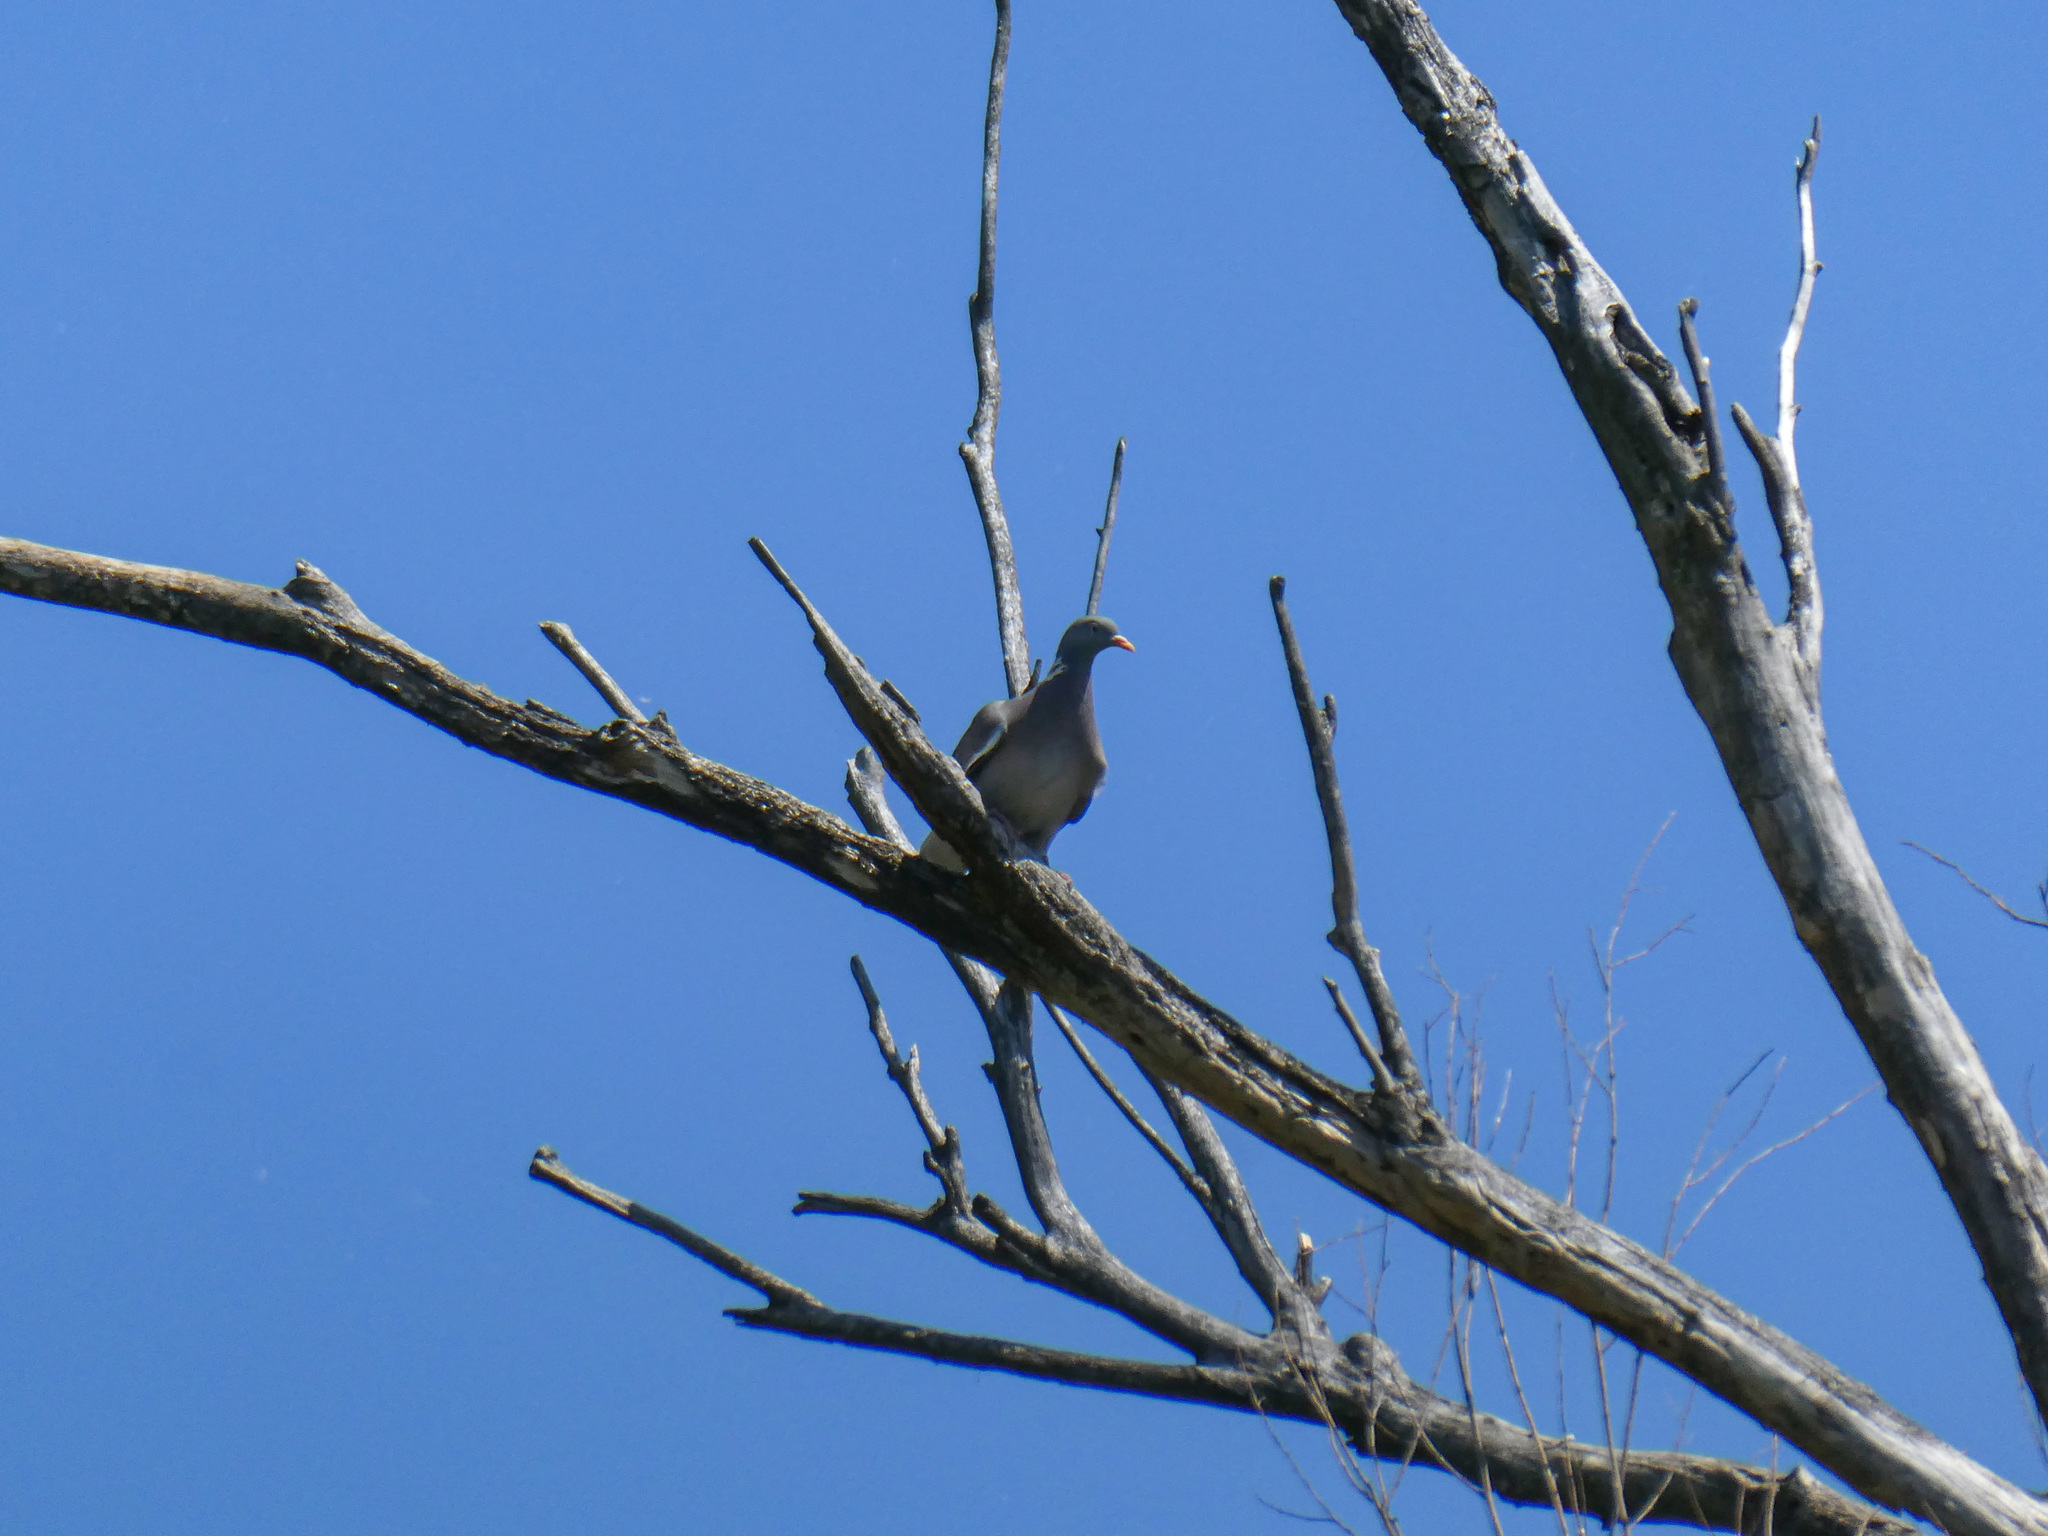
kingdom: Animalia
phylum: Chordata
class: Aves
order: Columbiformes
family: Columbidae
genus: Columba
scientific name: Columba palumbus
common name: Common wood pigeon
